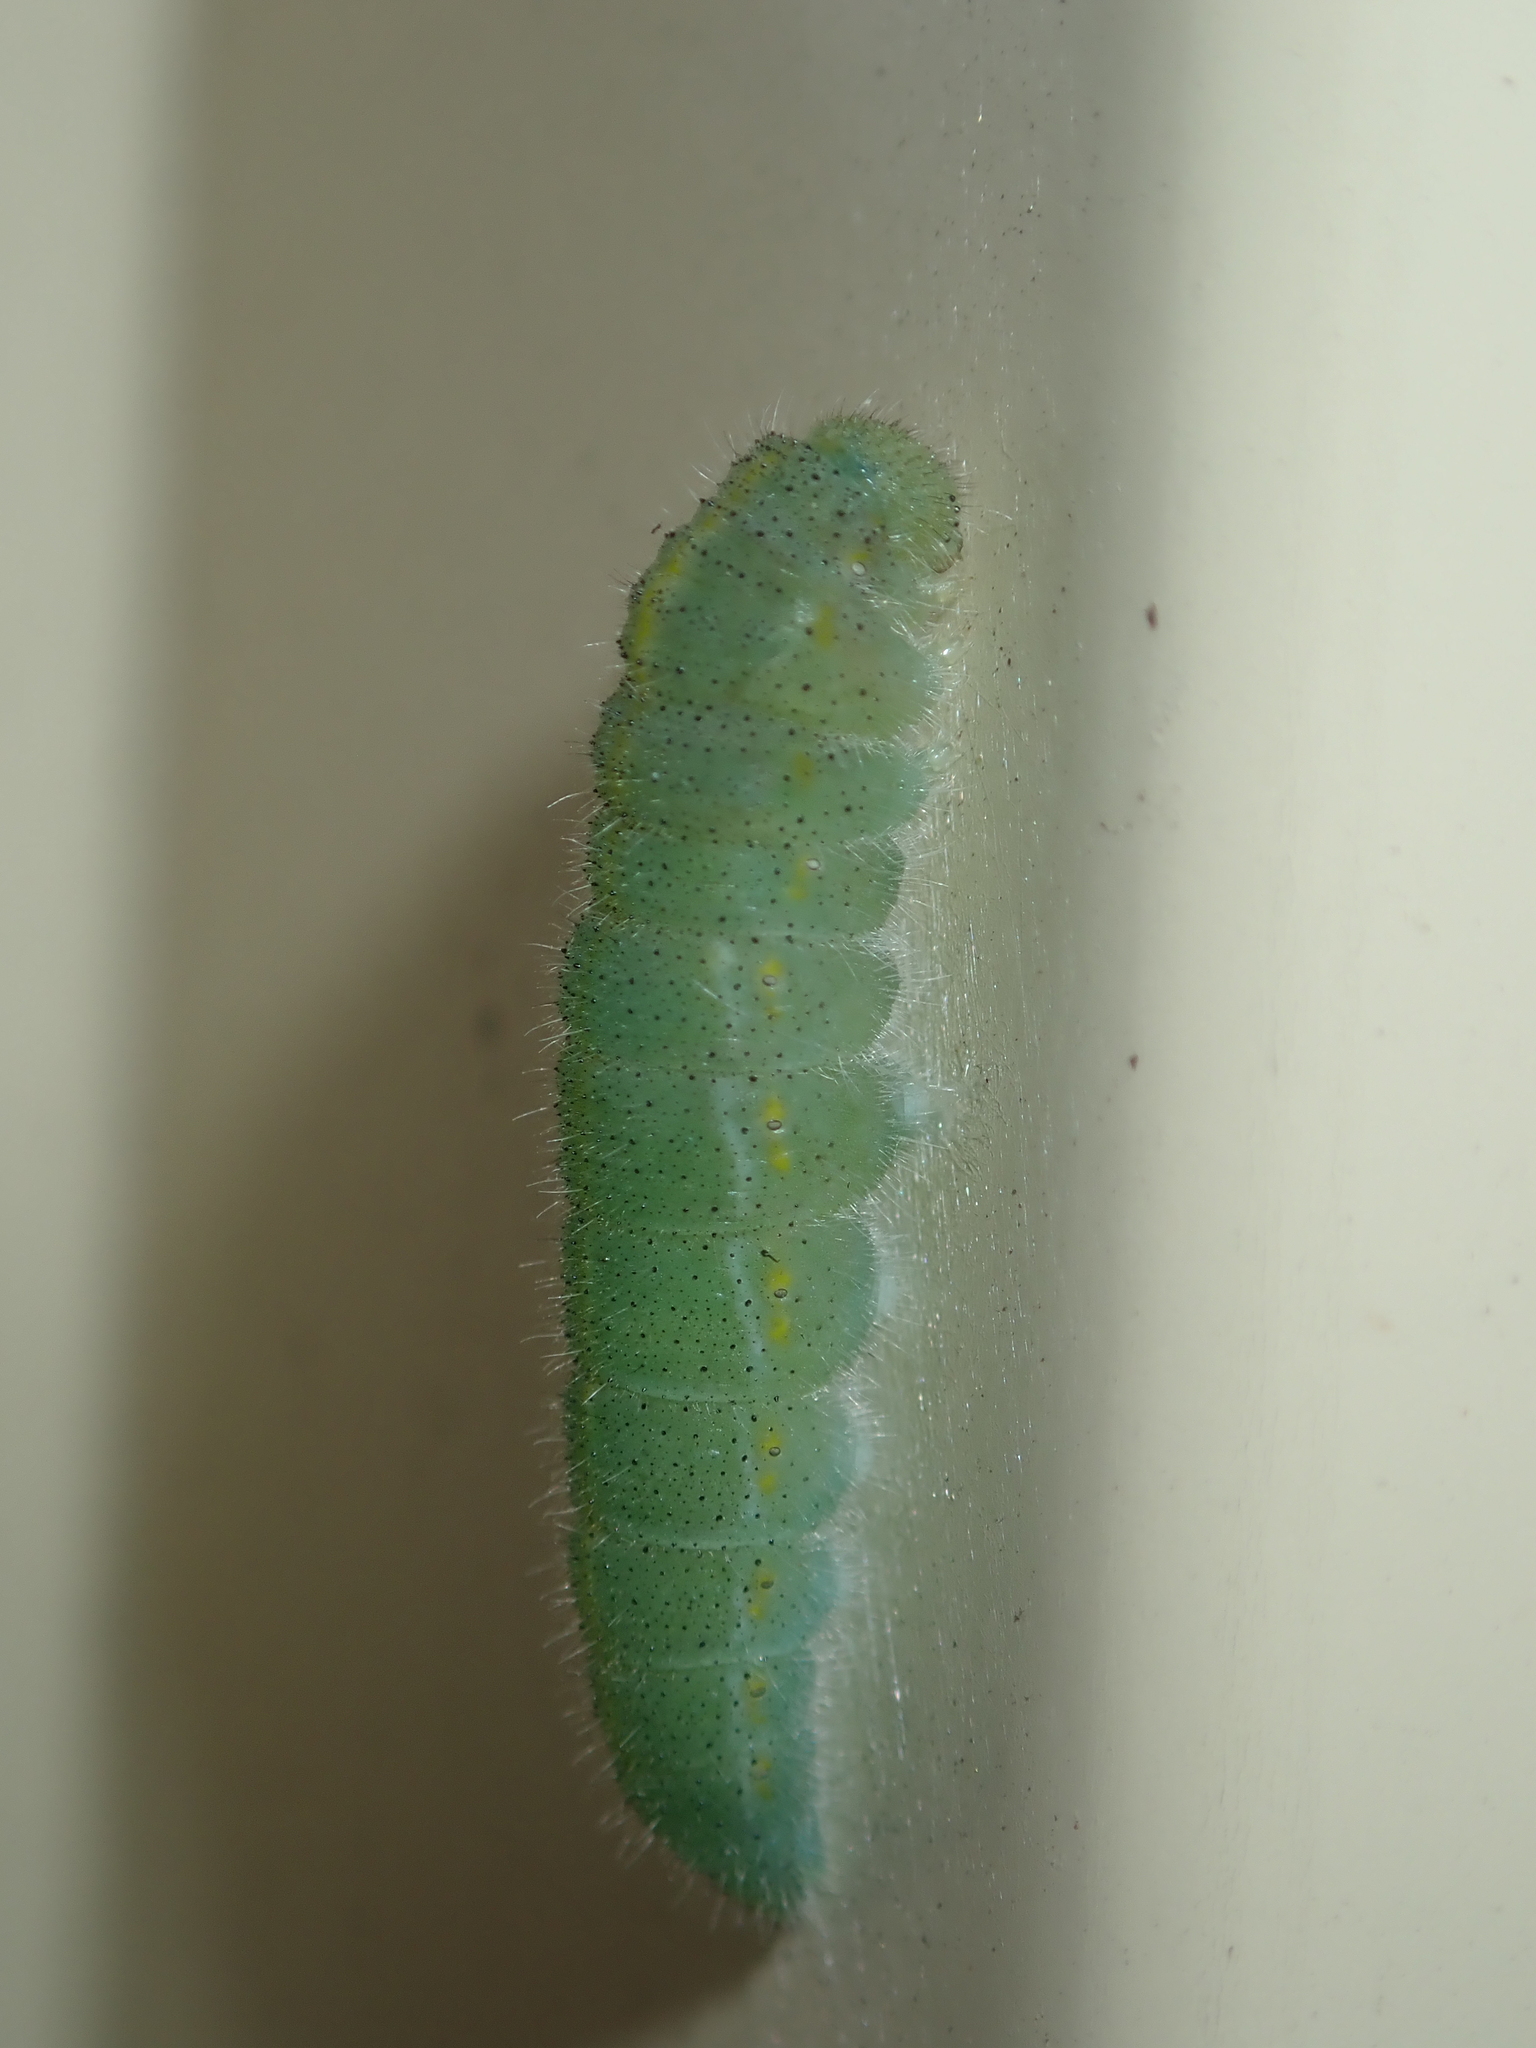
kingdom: Animalia
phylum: Arthropoda
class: Insecta
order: Lepidoptera
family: Pieridae
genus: Pieris
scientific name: Pieris rapae
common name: Small white
